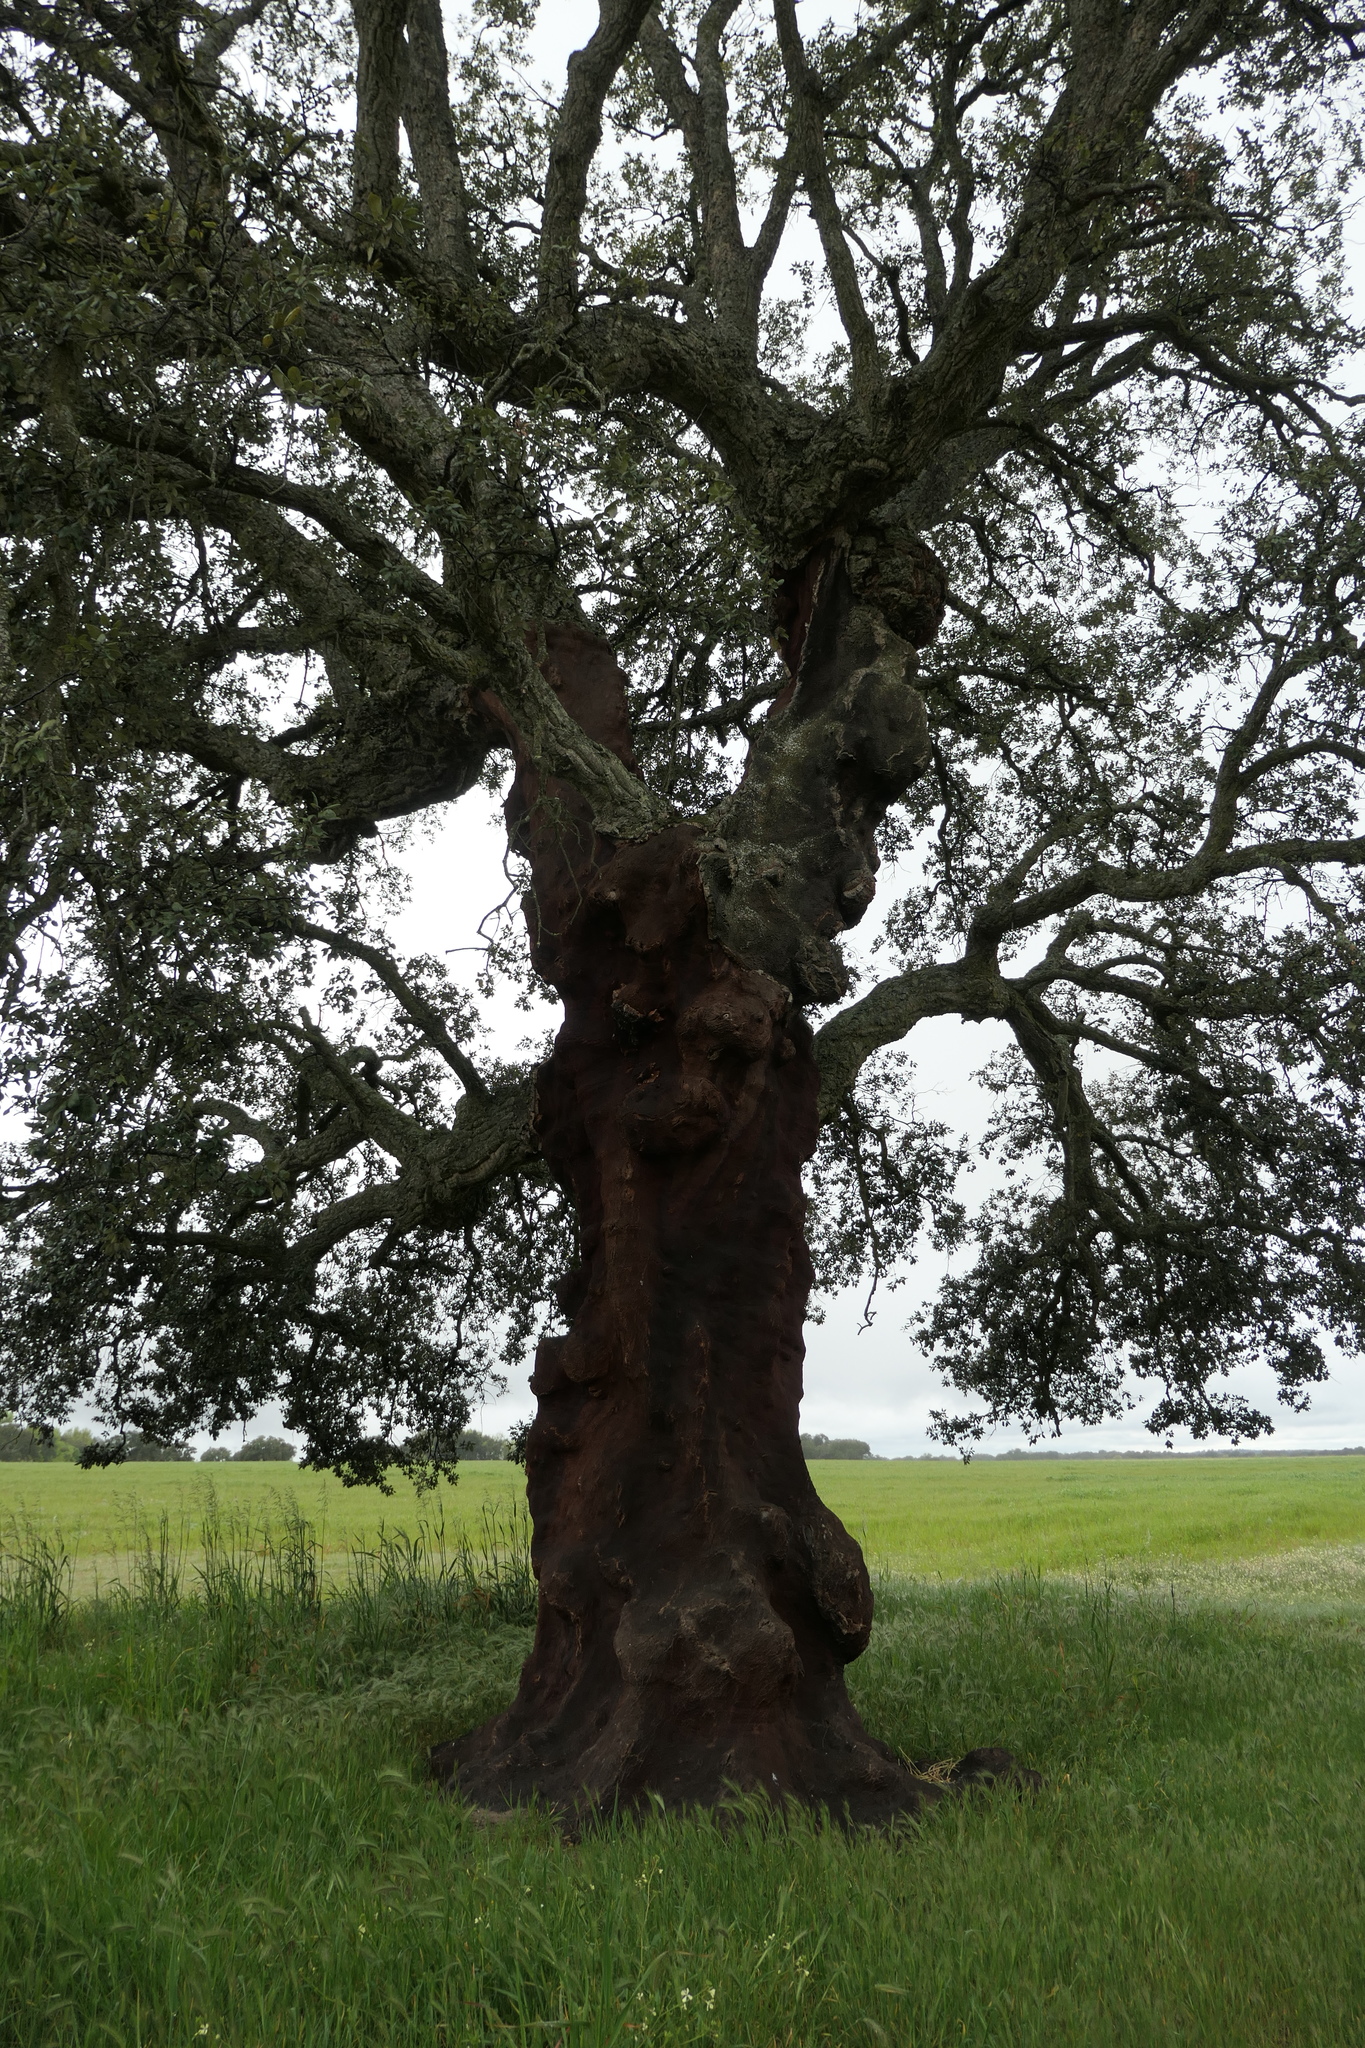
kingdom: Plantae
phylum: Tracheophyta
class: Magnoliopsida
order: Fagales
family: Fagaceae
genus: Quercus
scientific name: Quercus suber
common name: Cork oak
